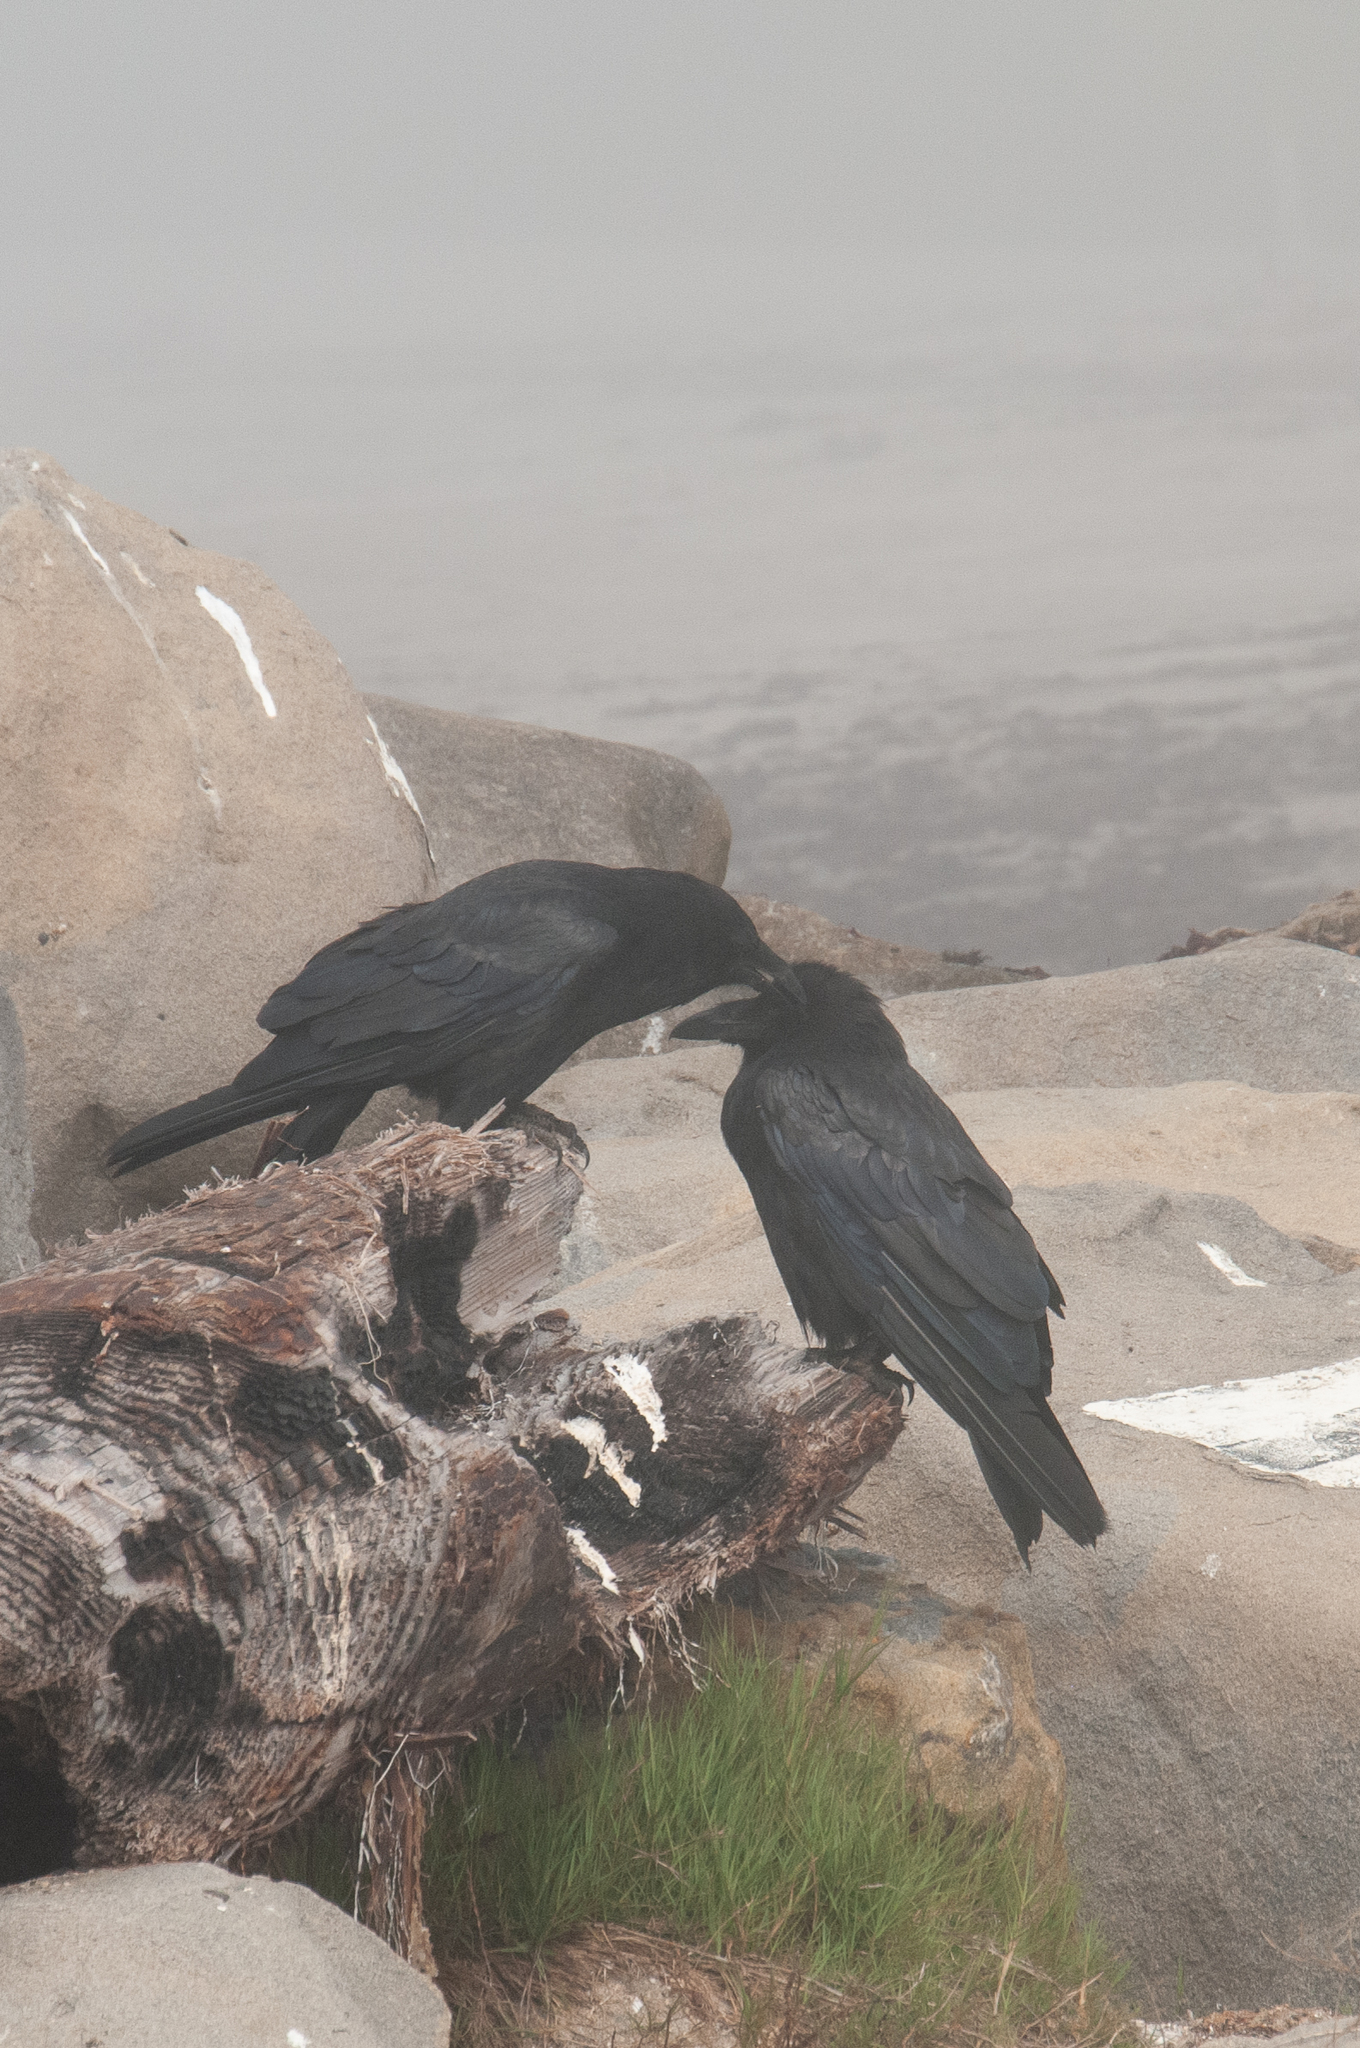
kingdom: Animalia
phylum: Chordata
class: Aves
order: Passeriformes
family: Corvidae
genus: Corvus
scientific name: Corvus corax
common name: Common raven
